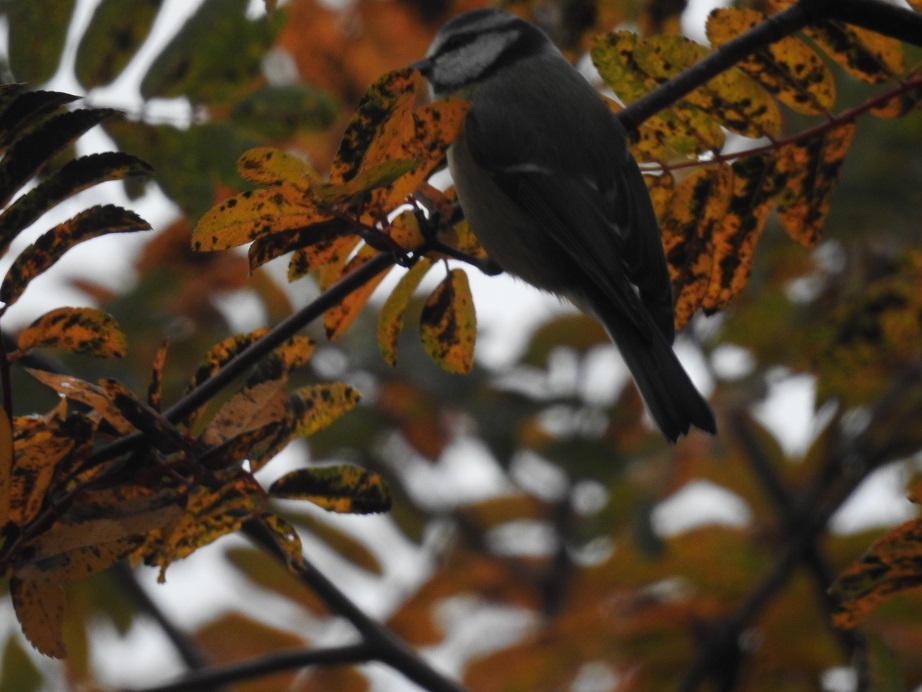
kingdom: Animalia
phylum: Chordata
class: Aves
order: Passeriformes
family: Paridae
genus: Cyanistes
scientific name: Cyanistes caeruleus
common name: Eurasian blue tit
